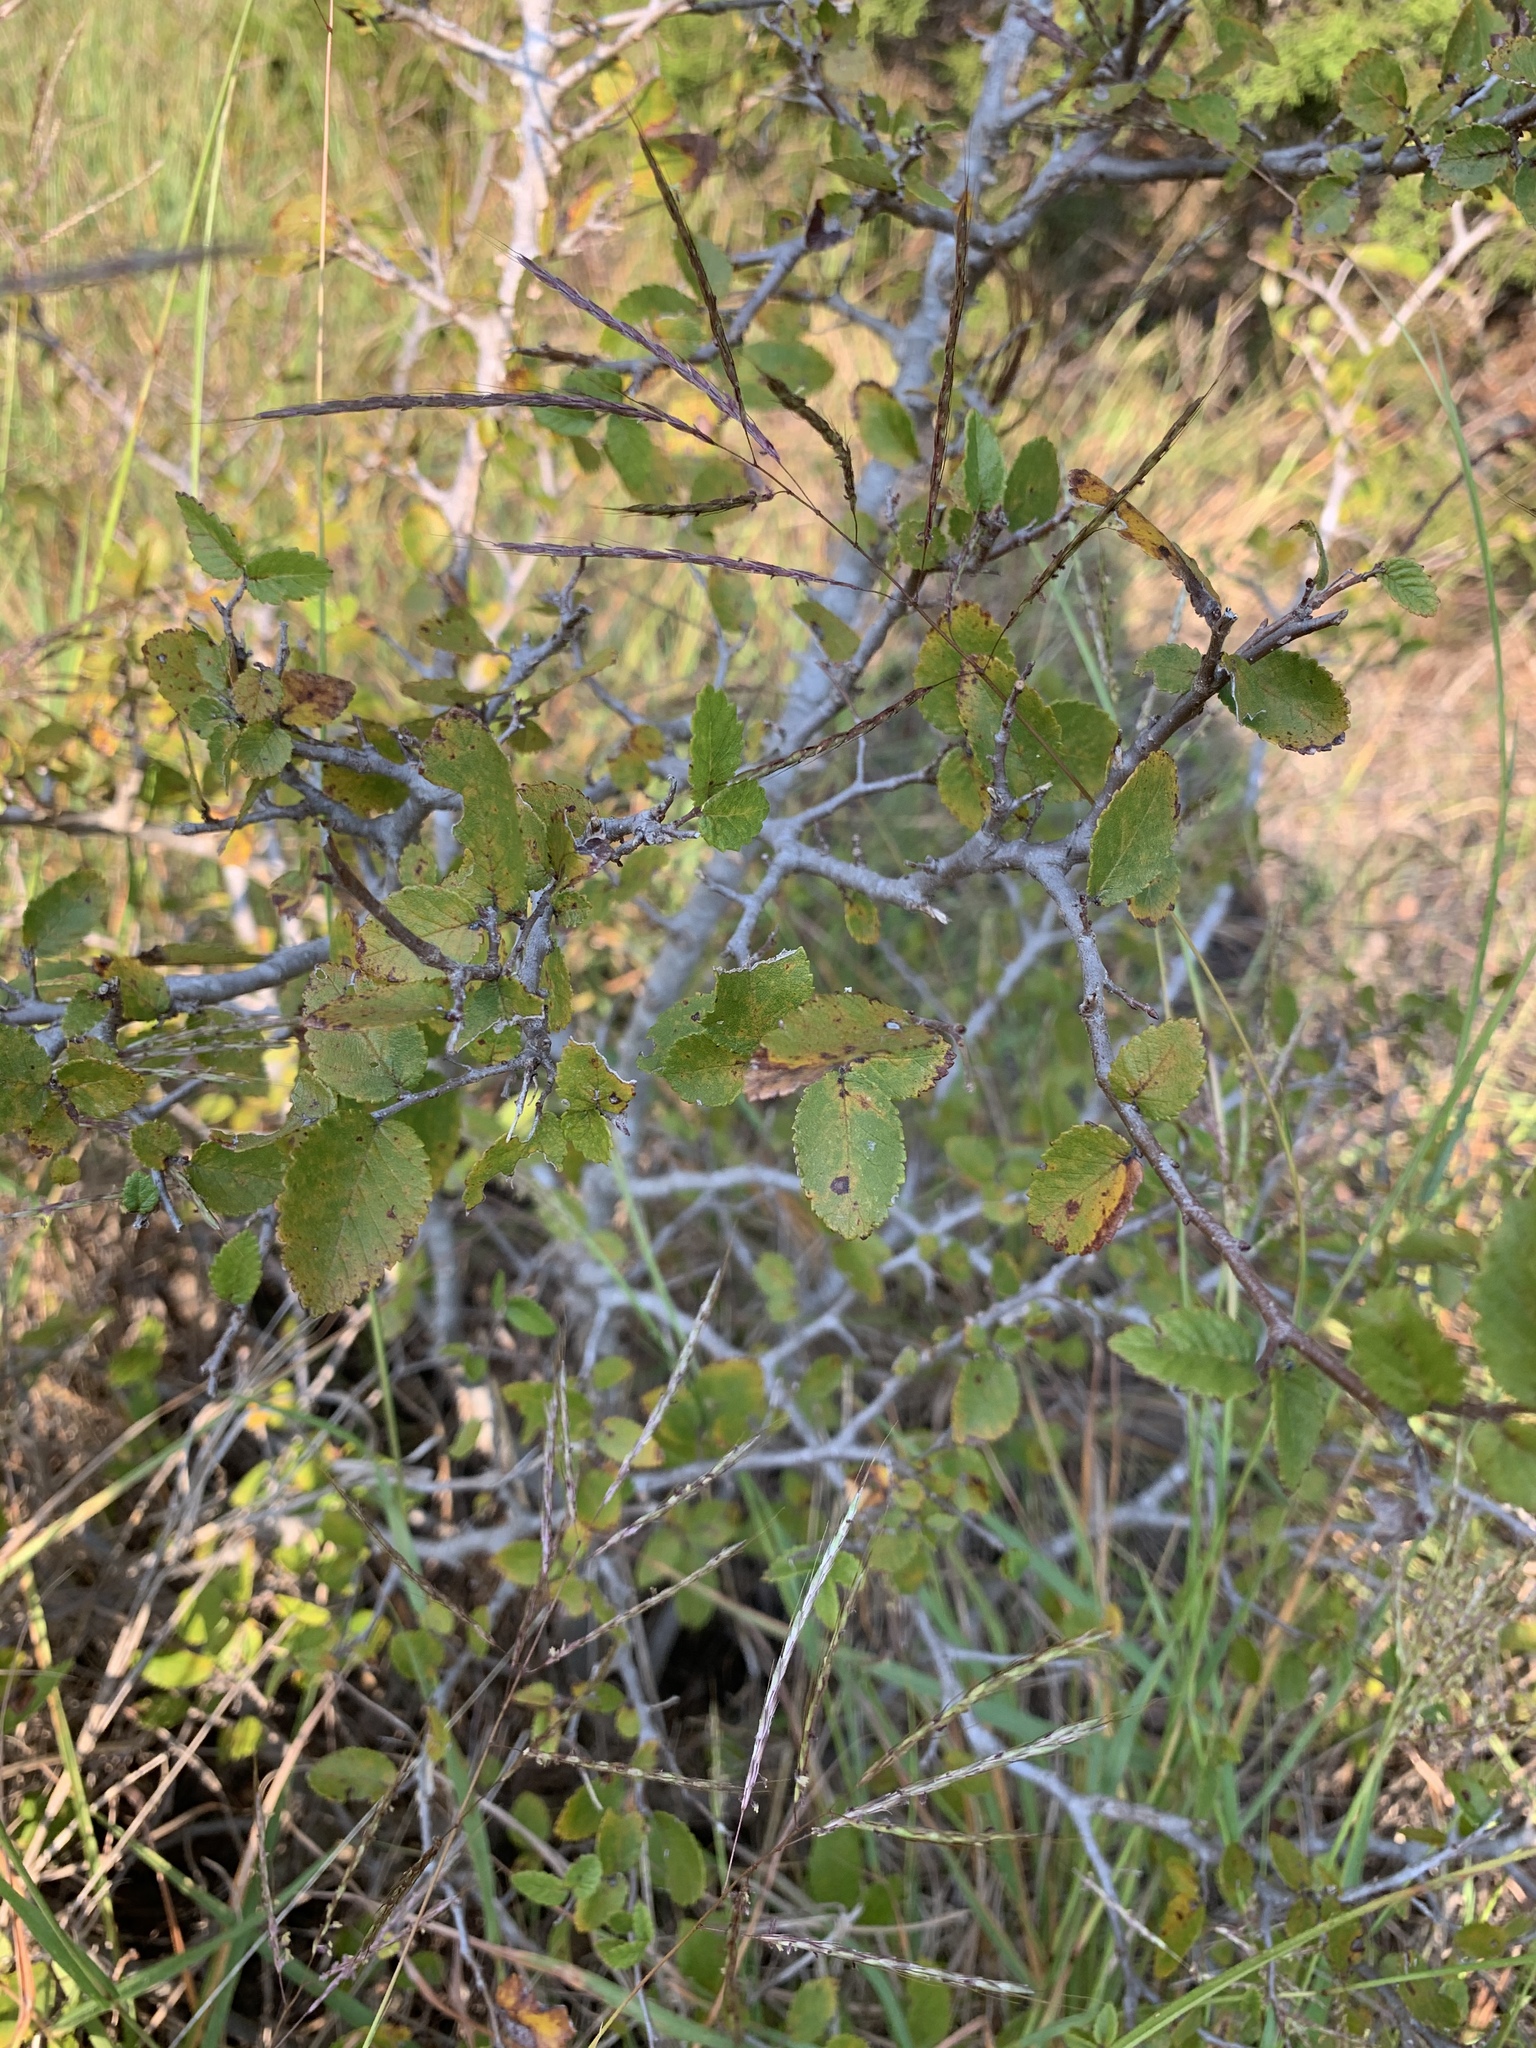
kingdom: Plantae
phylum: Tracheophyta
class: Magnoliopsida
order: Rosales
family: Ulmaceae
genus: Ulmus
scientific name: Ulmus crassifolia
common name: Basket elm
